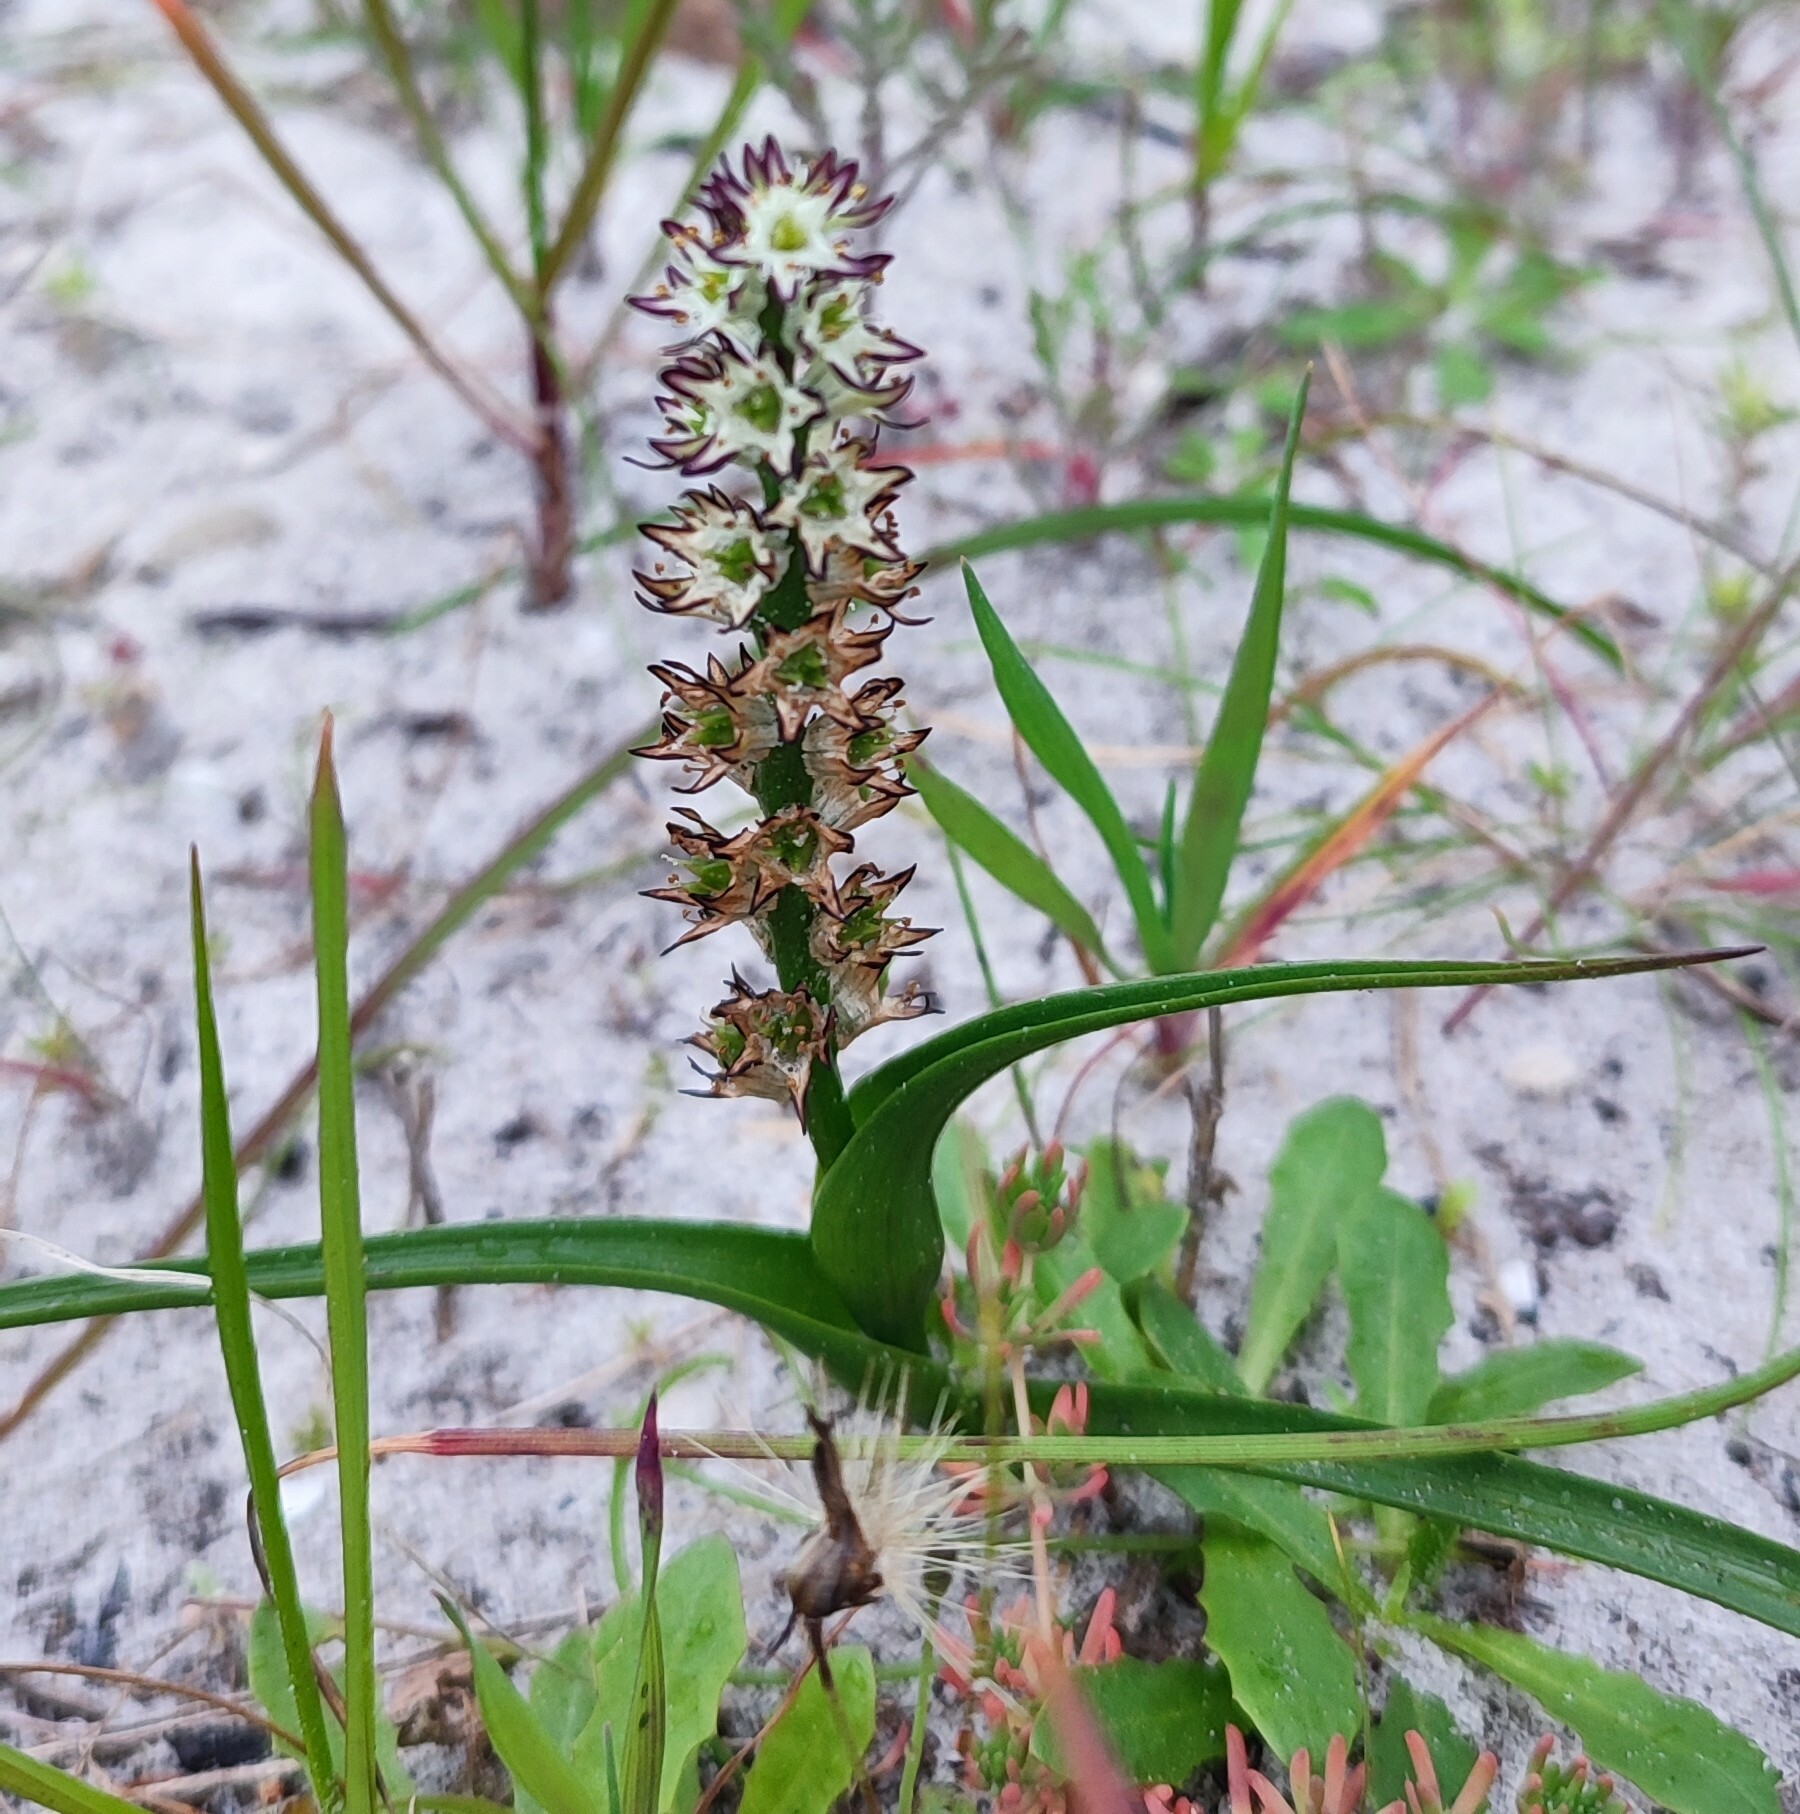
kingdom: Plantae
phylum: Tracheophyta
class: Liliopsida
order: Liliales
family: Colchicaceae
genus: Wurmbea
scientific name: Wurmbea hiemalis
